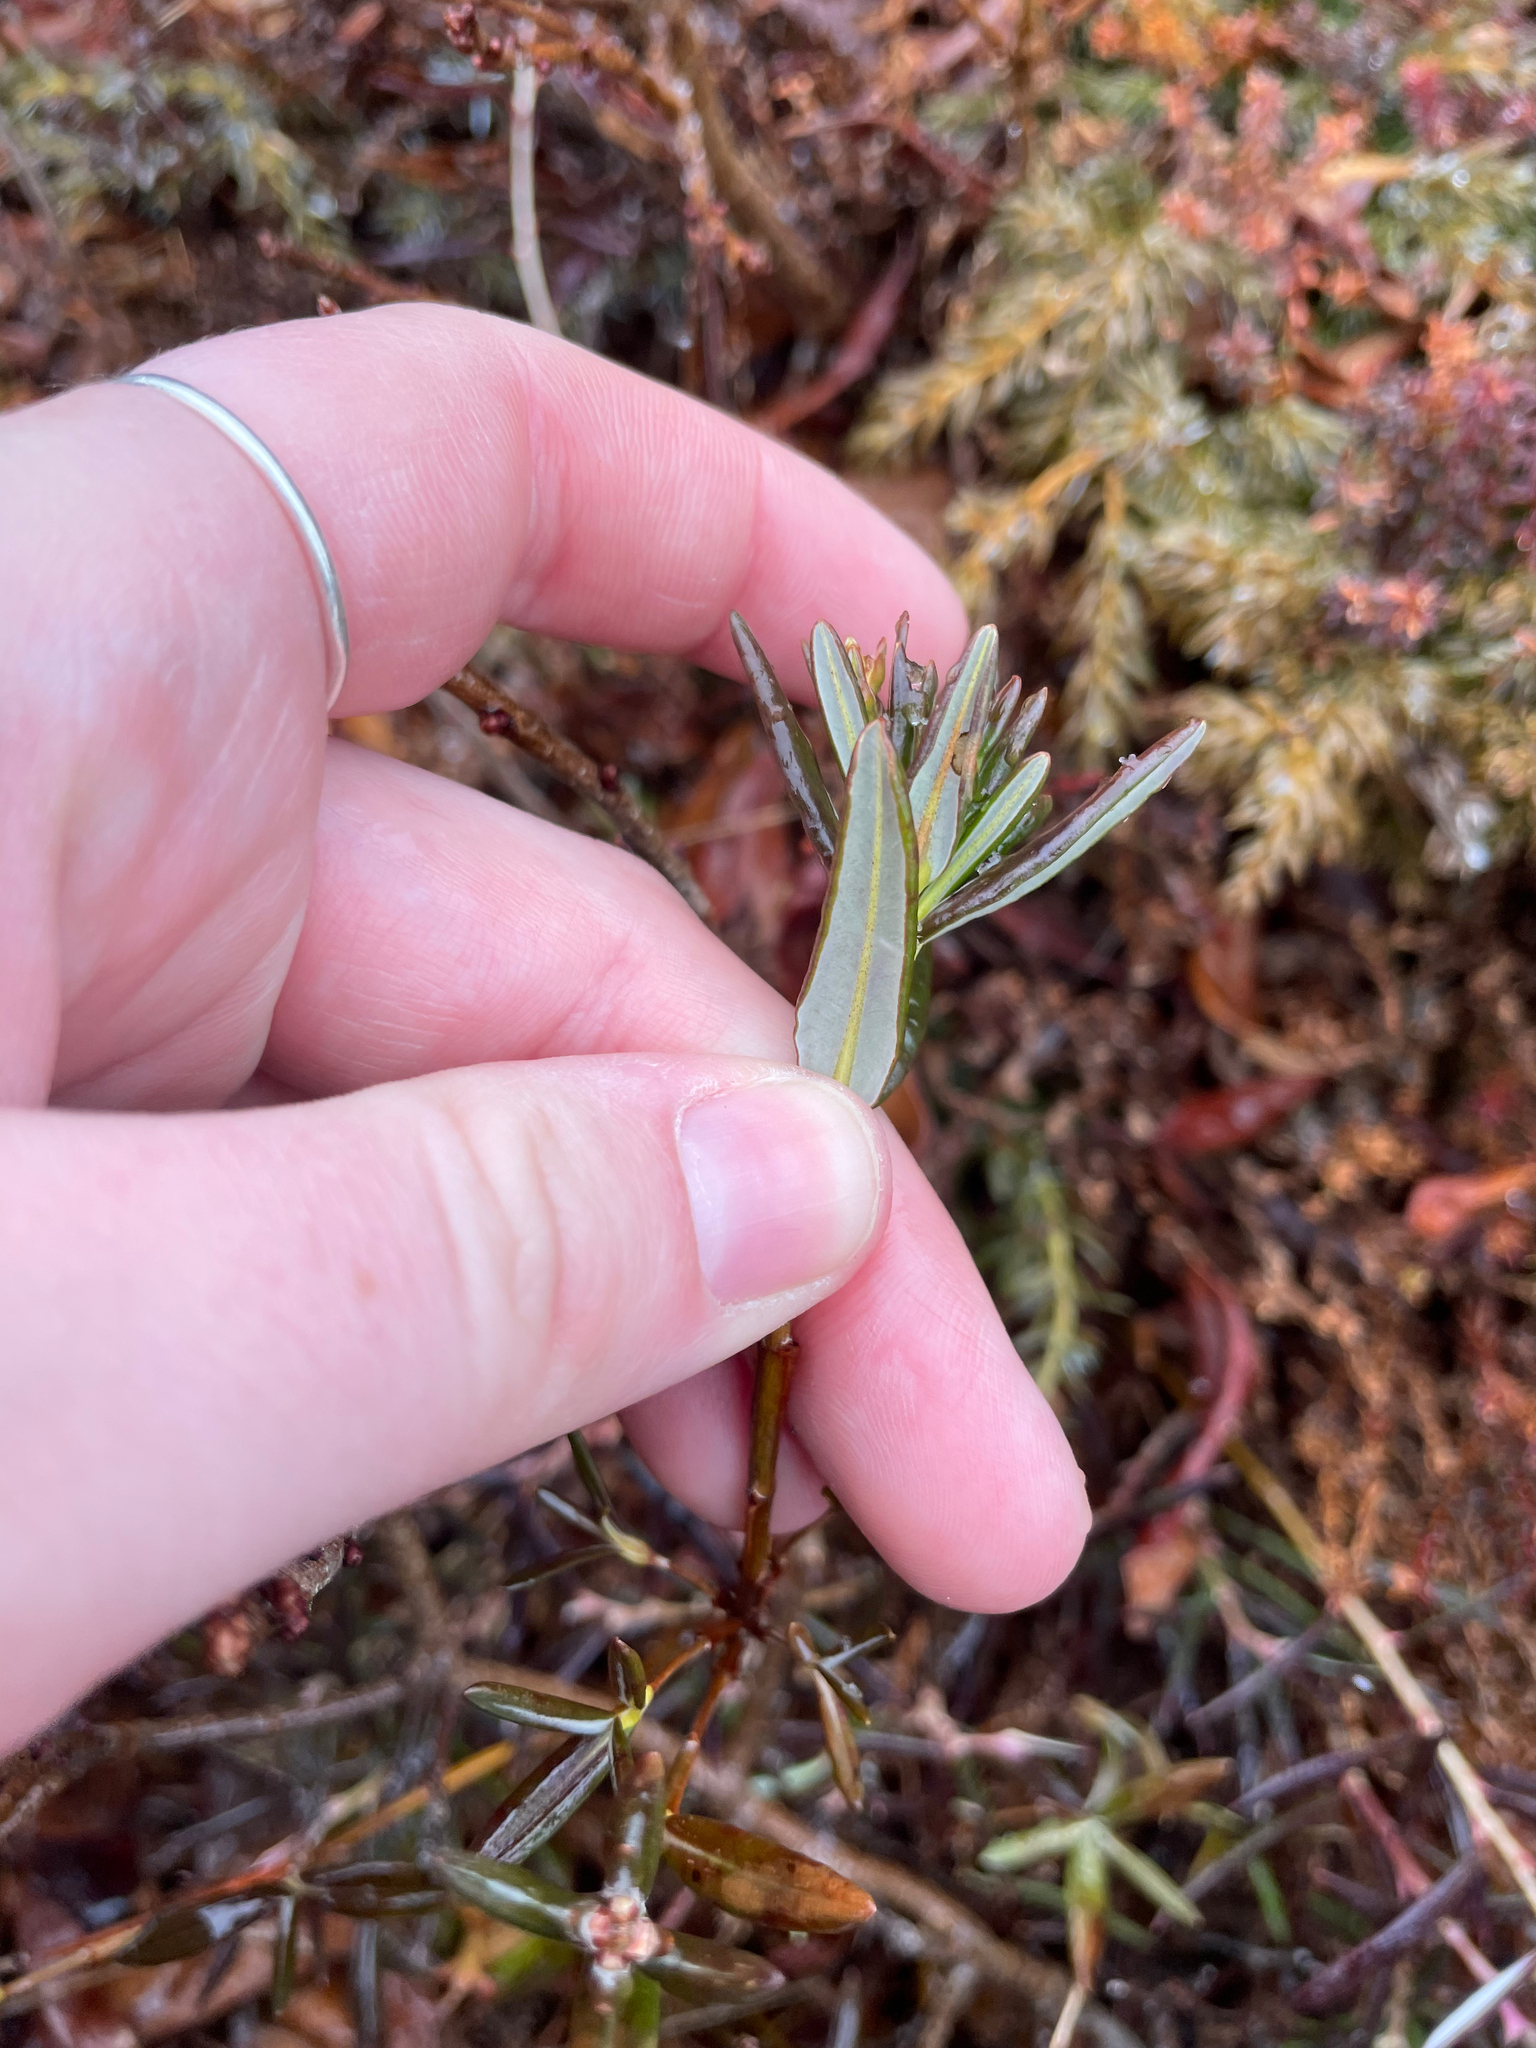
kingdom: Plantae
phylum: Tracheophyta
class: Magnoliopsida
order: Ericales
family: Ericaceae
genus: Kalmia
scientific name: Kalmia polifolia
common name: Bog-laurel
